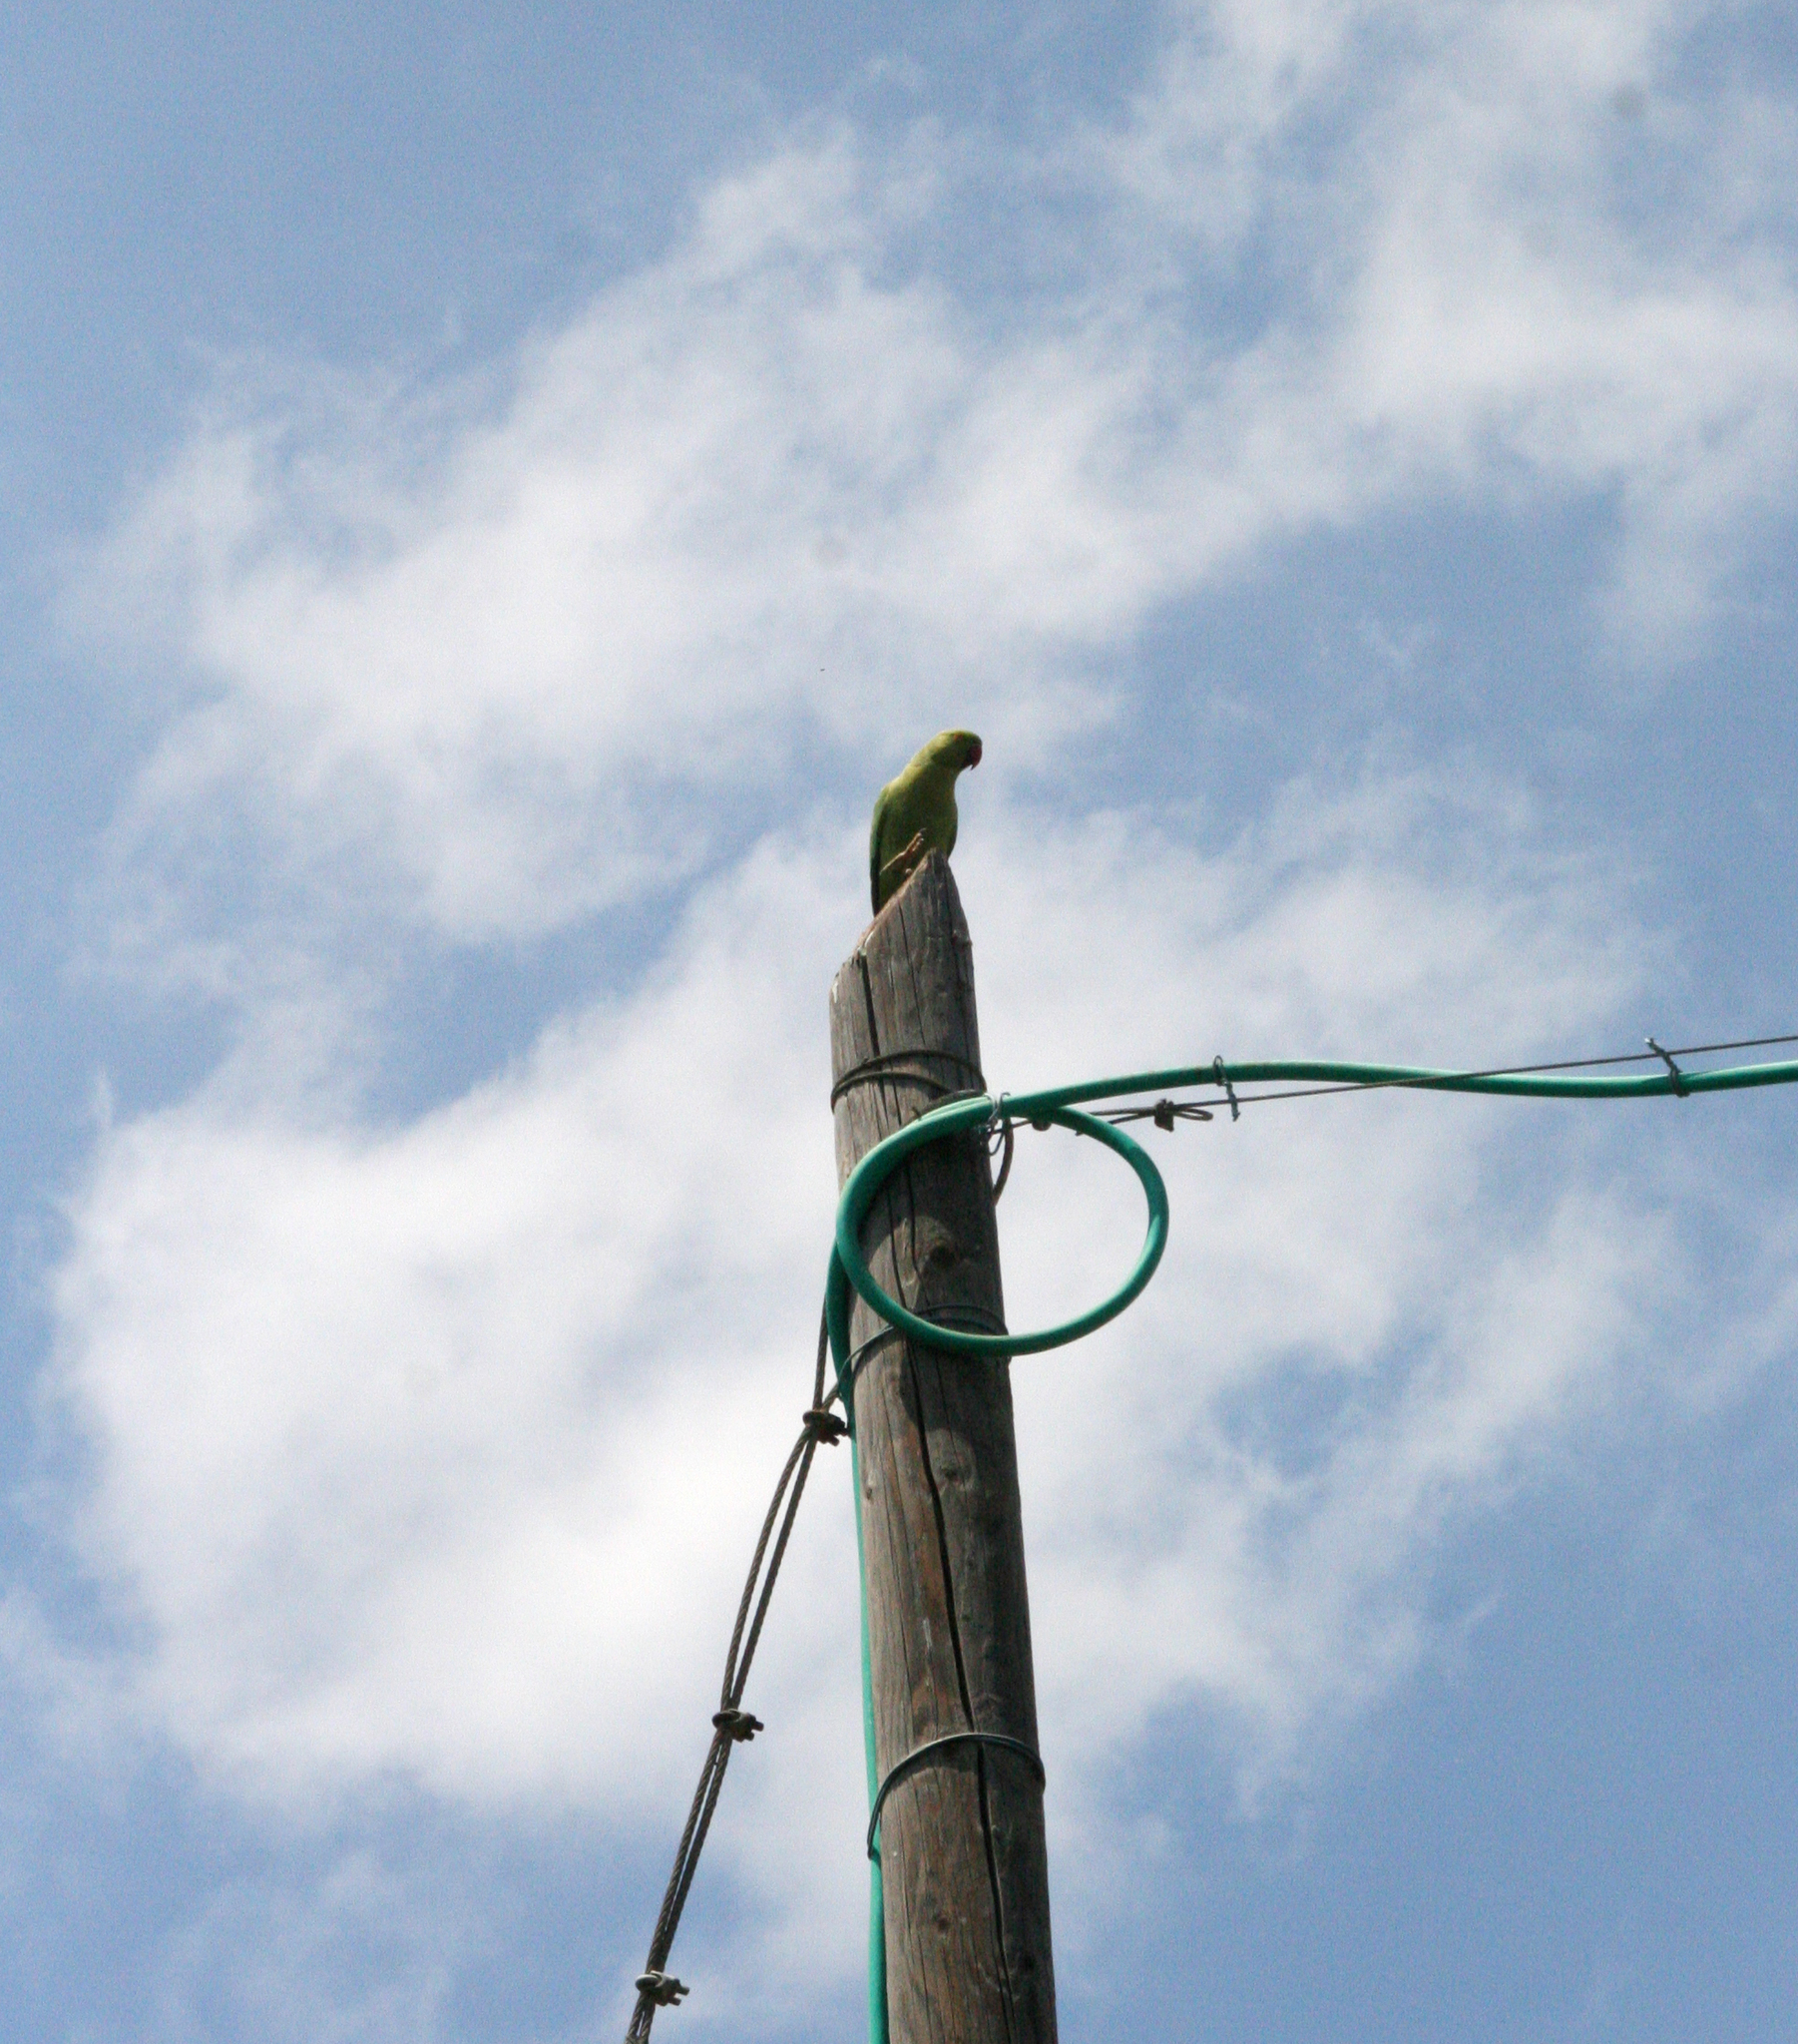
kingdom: Animalia
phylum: Chordata
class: Aves
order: Psittaciformes
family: Psittacidae
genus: Psittacula
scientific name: Psittacula krameri
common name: Rose-ringed parakeet
